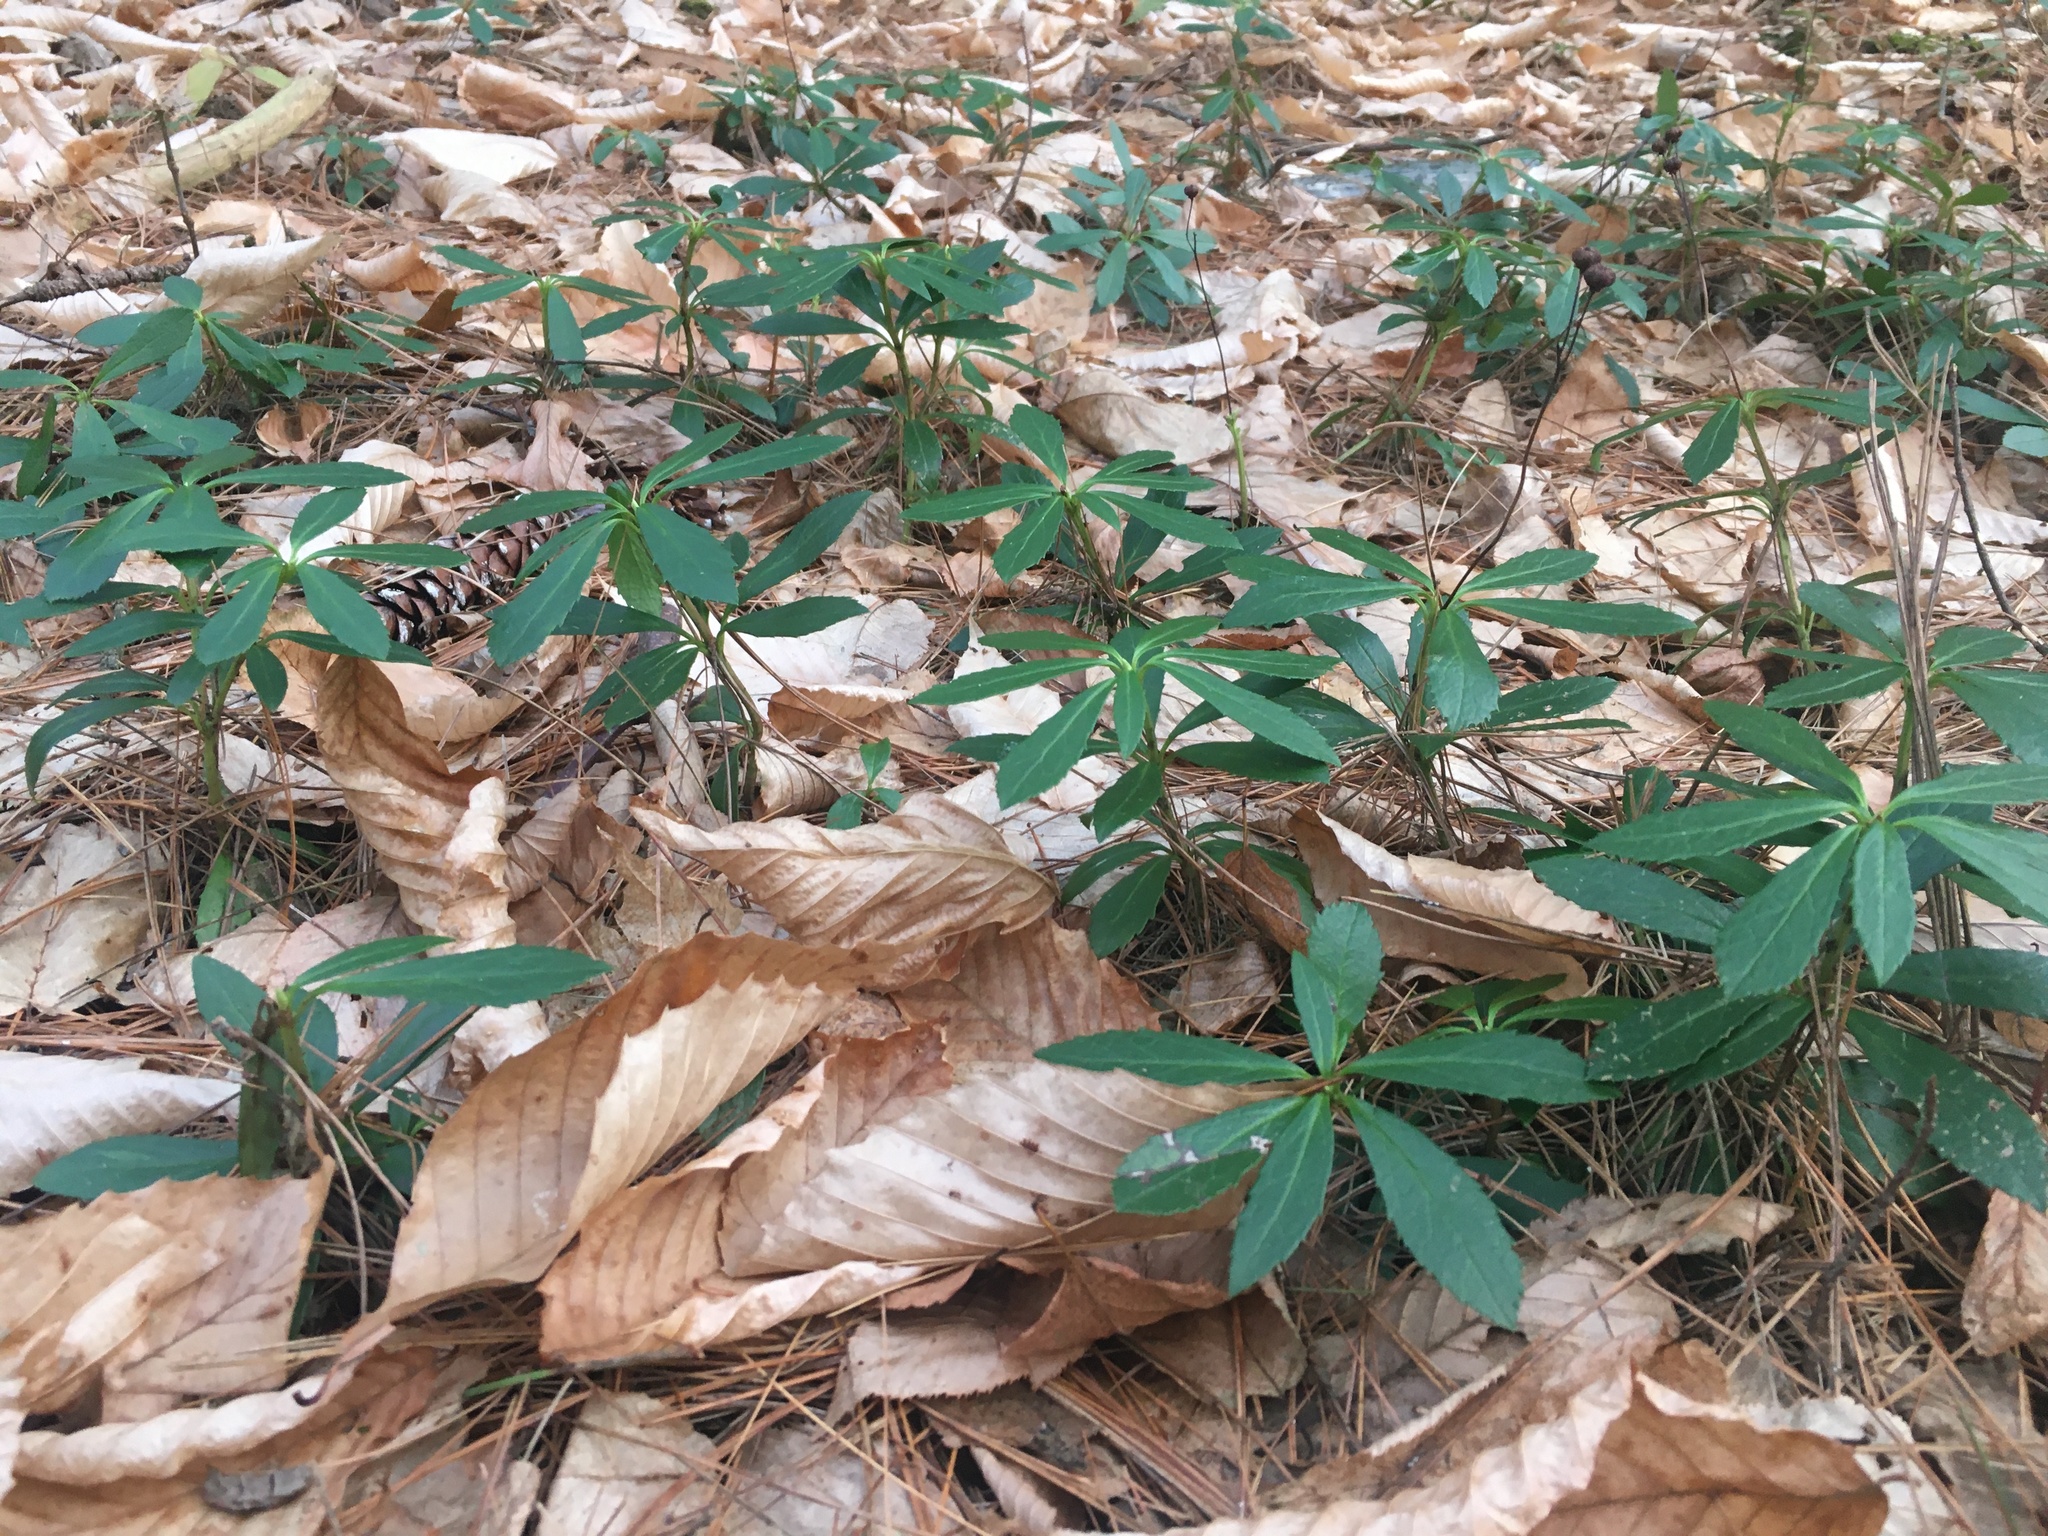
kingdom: Plantae
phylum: Tracheophyta
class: Magnoliopsida
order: Ericales
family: Ericaceae
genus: Chimaphila
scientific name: Chimaphila umbellata
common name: Pipsissewa
